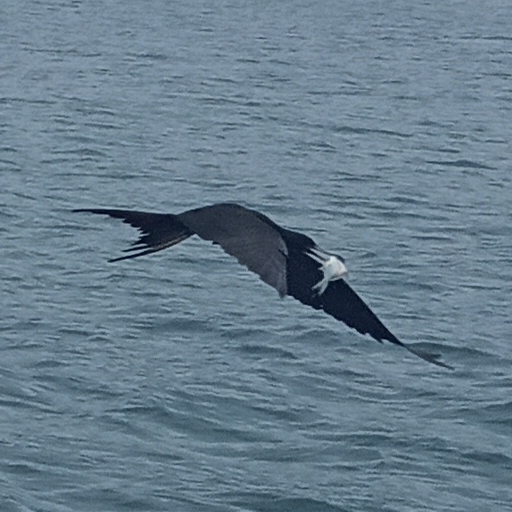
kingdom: Animalia
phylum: Chordata
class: Aves
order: Suliformes
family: Fregatidae
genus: Fregata
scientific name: Fregata magnificens
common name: Magnificent frigatebird
